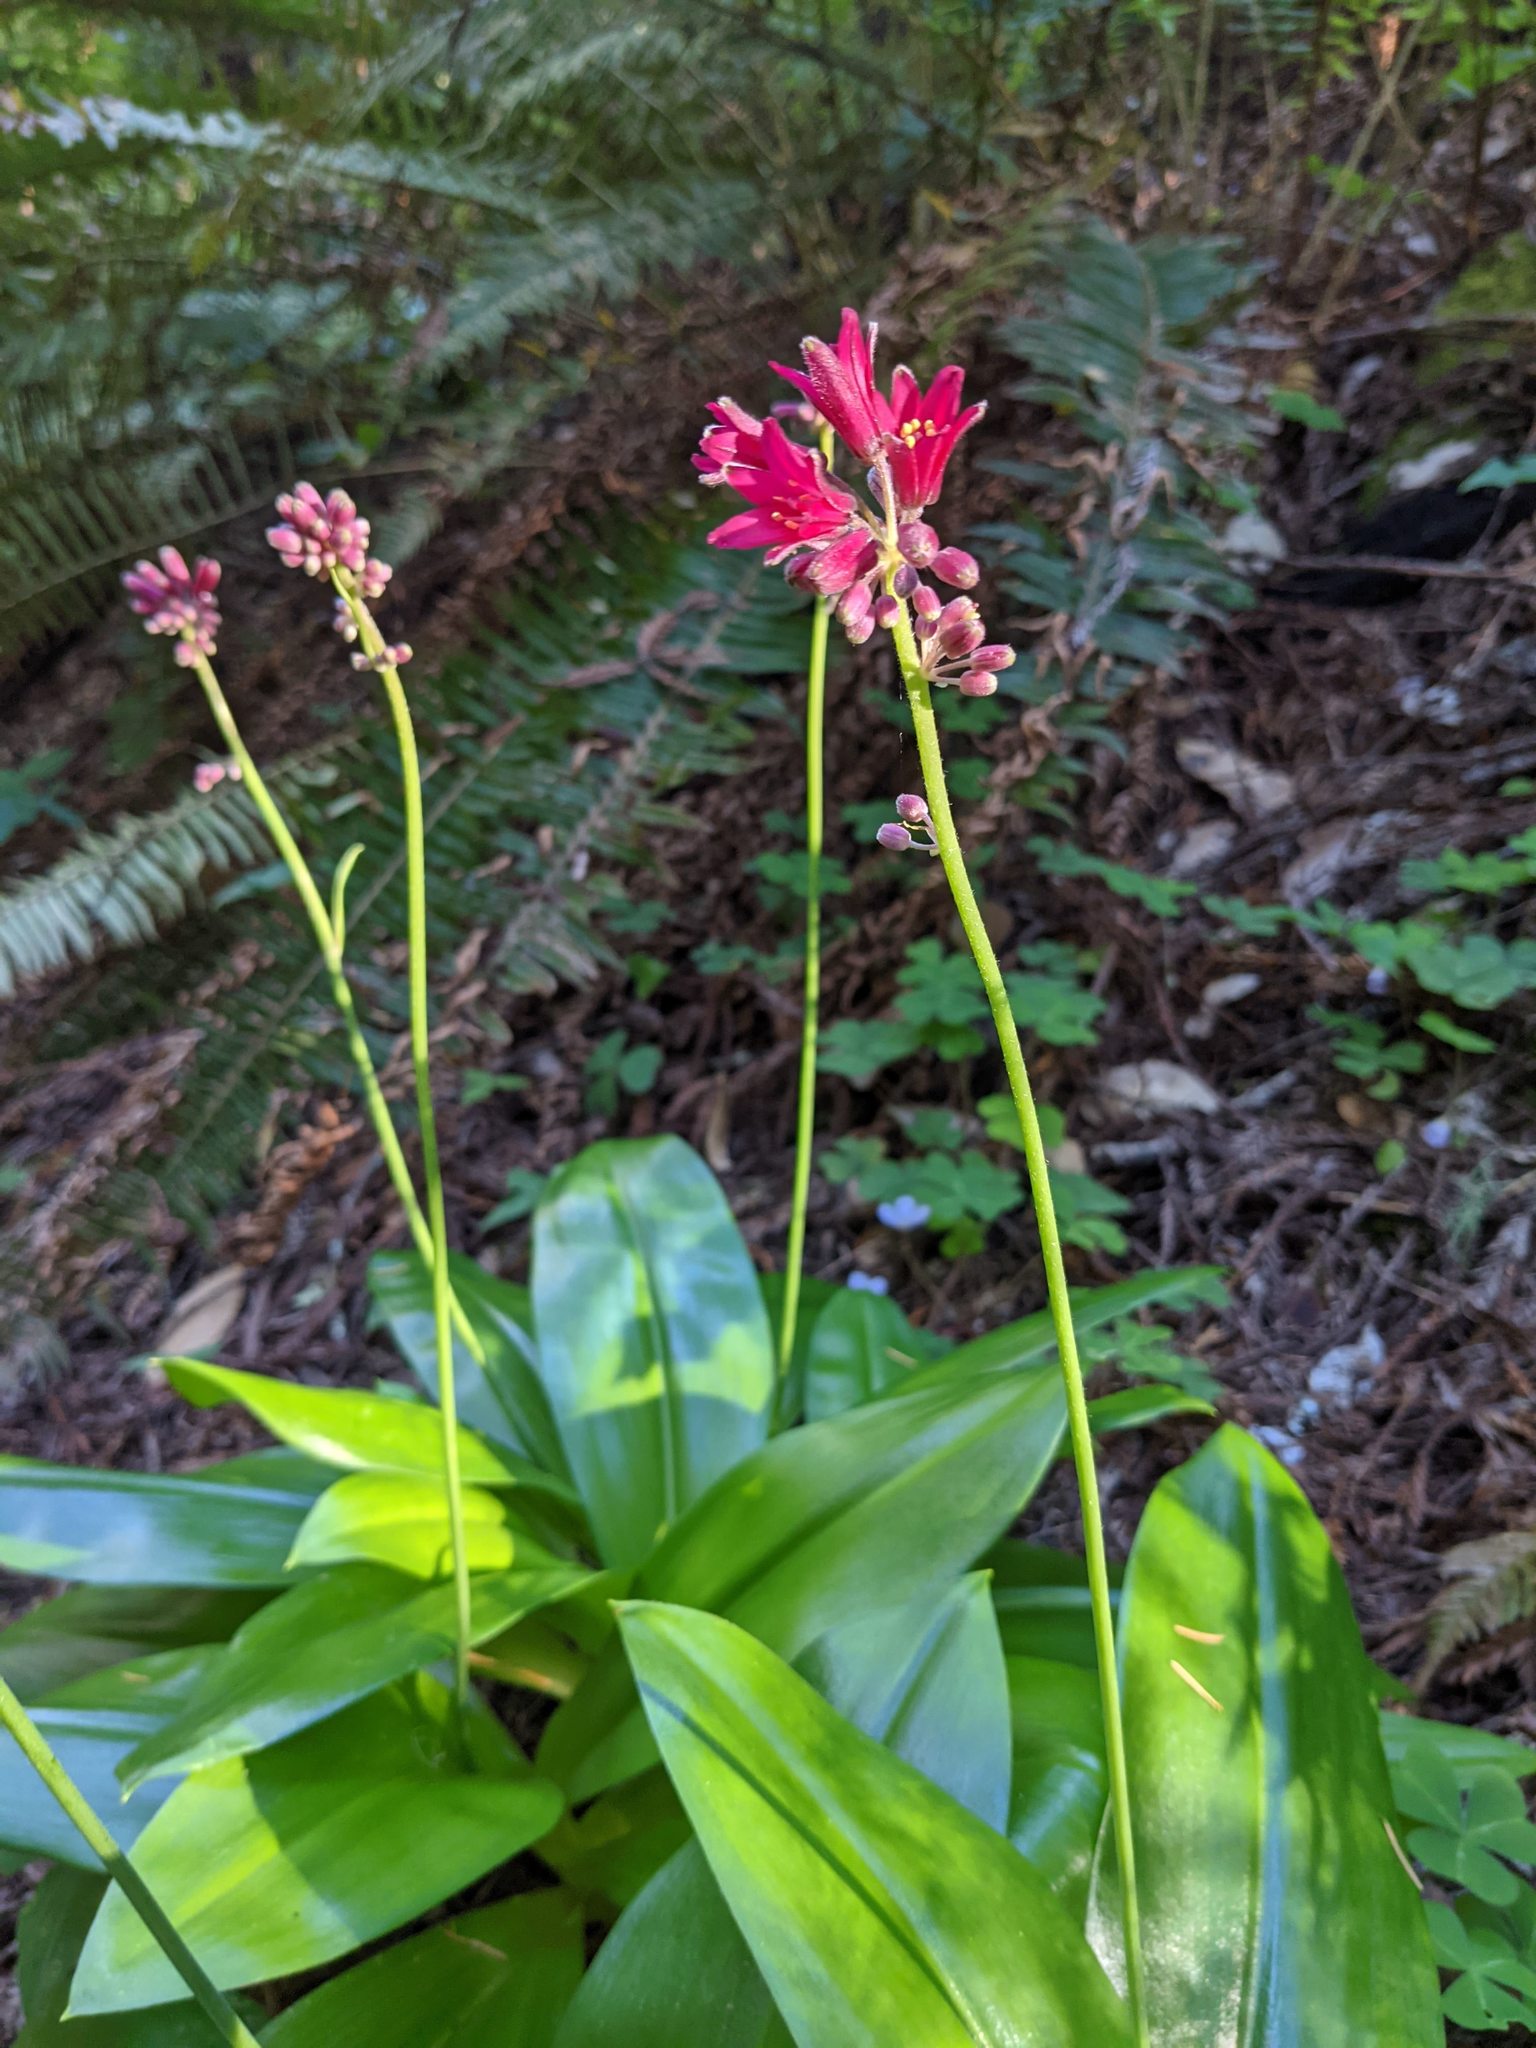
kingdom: Plantae
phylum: Tracheophyta
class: Liliopsida
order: Liliales
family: Liliaceae
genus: Clintonia
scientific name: Clintonia andrewsiana
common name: Red clintonia
